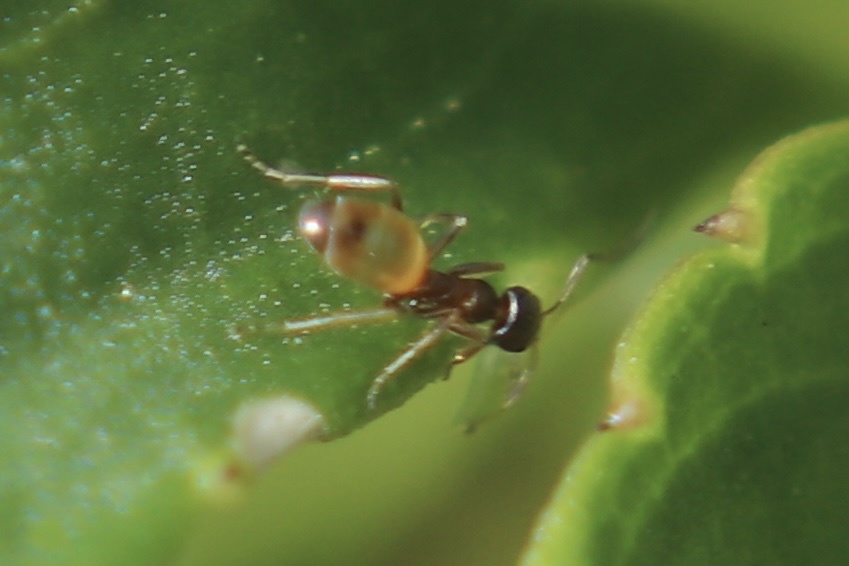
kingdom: Animalia
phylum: Arthropoda
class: Insecta
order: Hymenoptera
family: Formicidae
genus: Tapinoma
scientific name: Tapinoma melanocephalum
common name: Ghost ant
